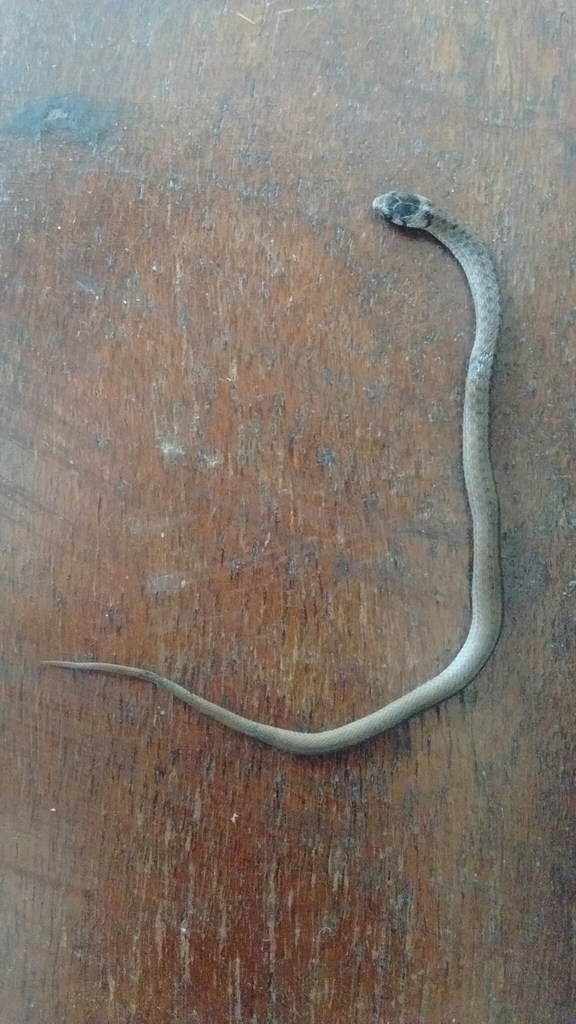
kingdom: Animalia
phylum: Chordata
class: Squamata
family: Colubridae
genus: Storeria
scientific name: Storeria dekayi
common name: (dekay’s) brown snake
